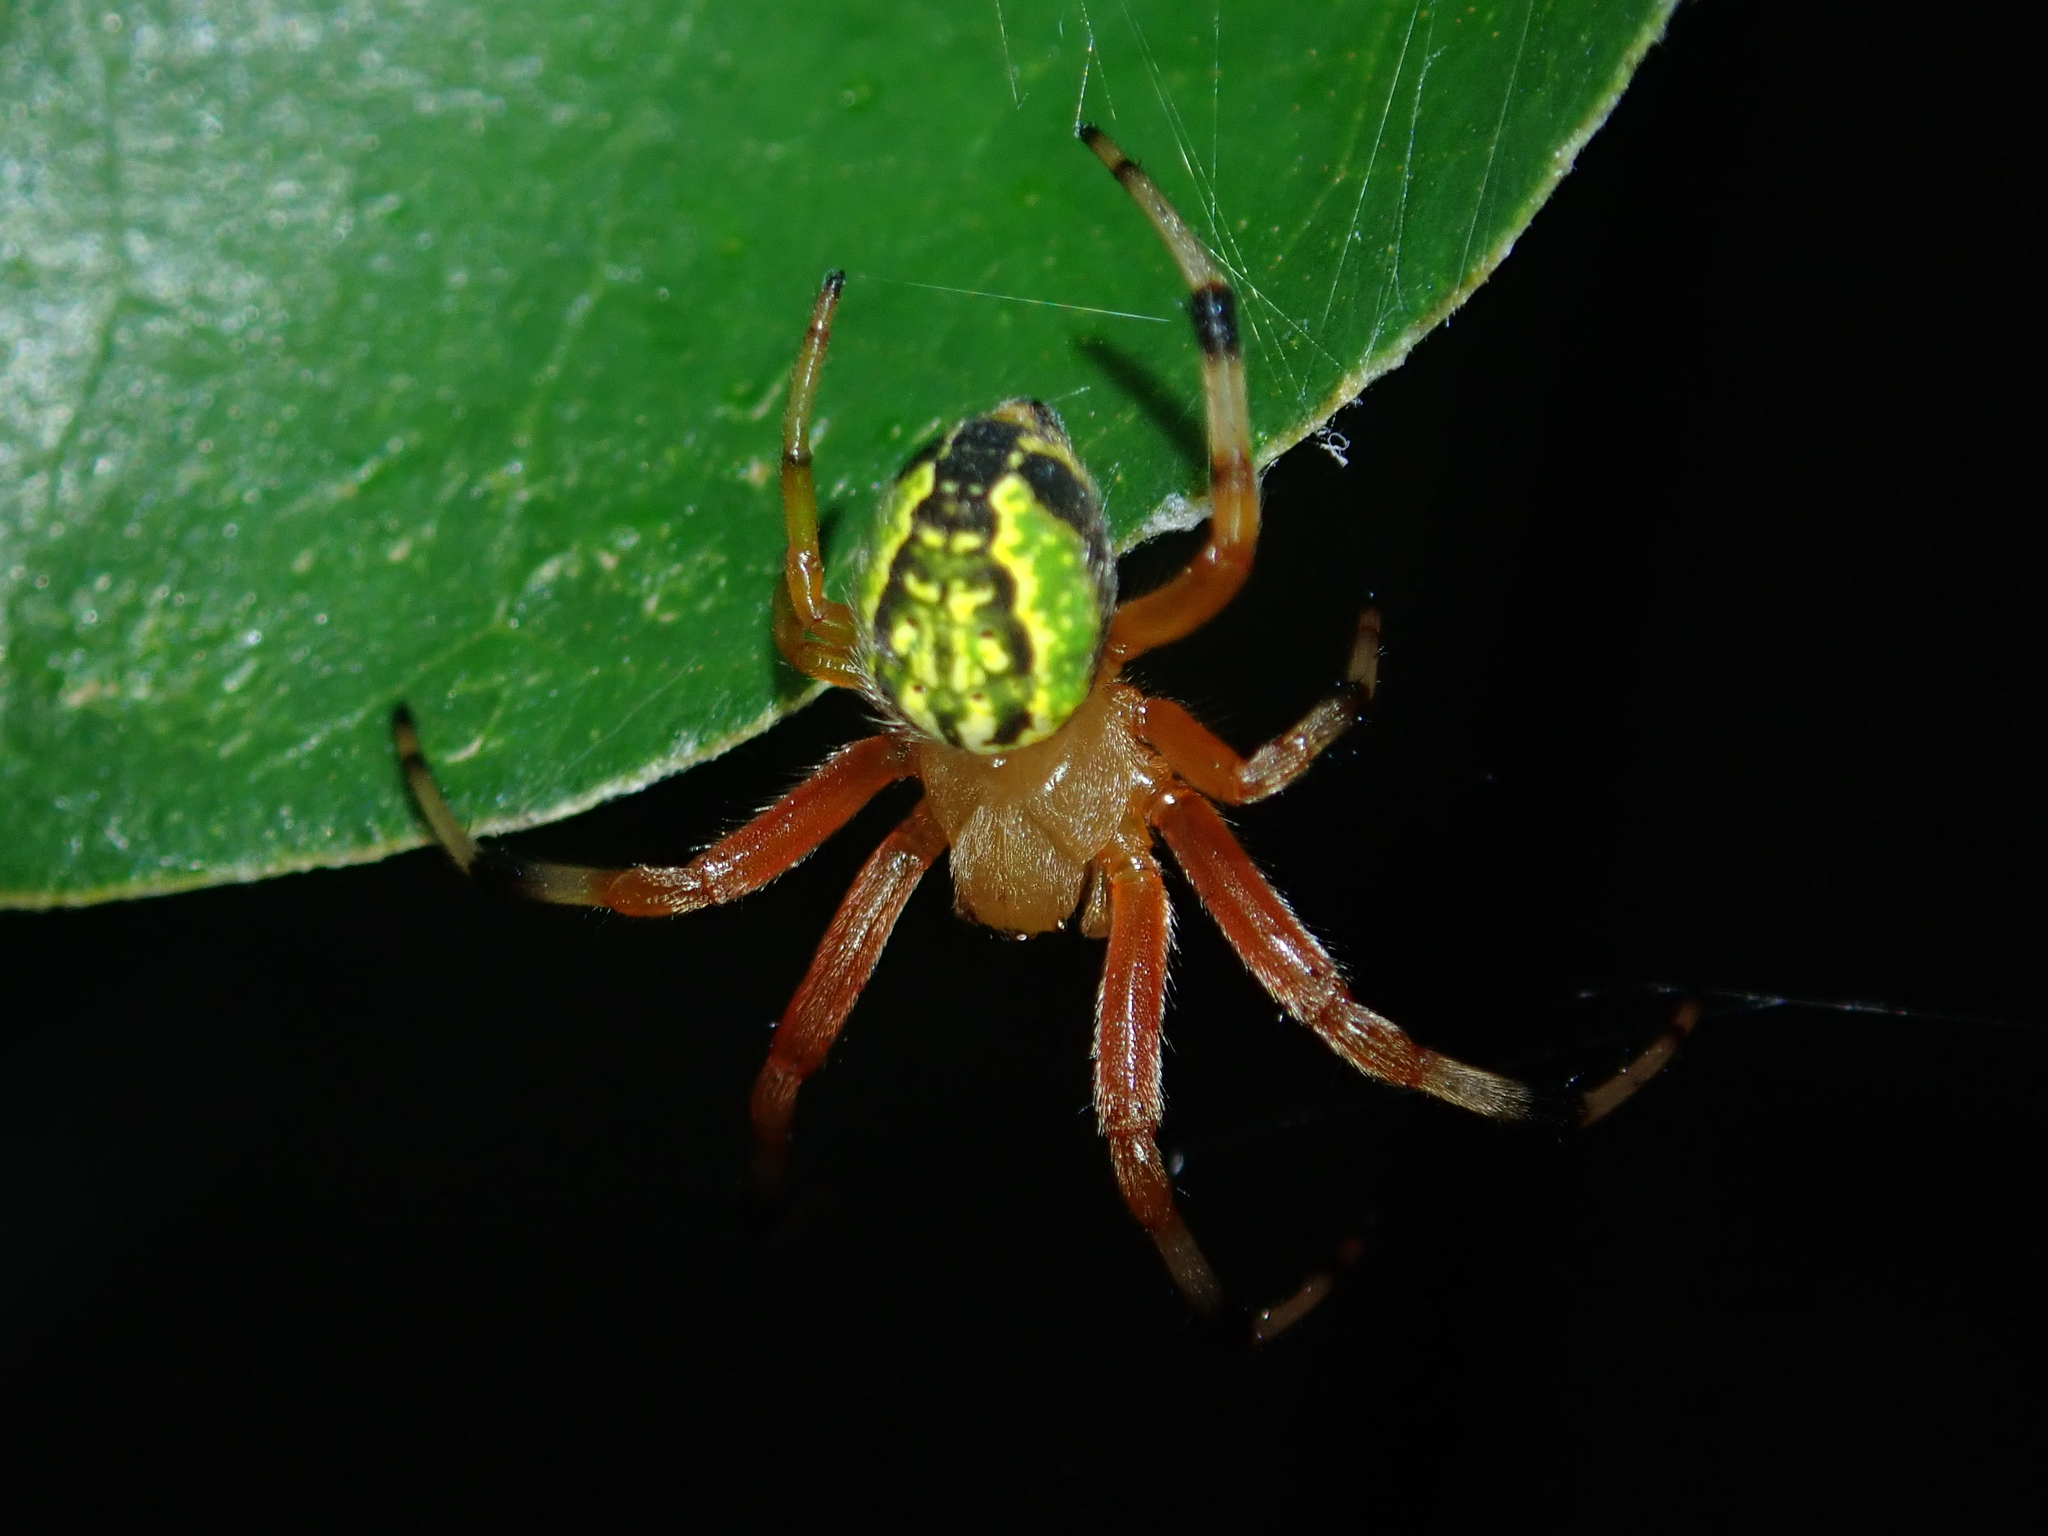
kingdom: Animalia
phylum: Arthropoda
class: Arachnida
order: Araneae
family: Araneidae
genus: Araneus
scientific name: Araneus guttatus
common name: Orb weavers
